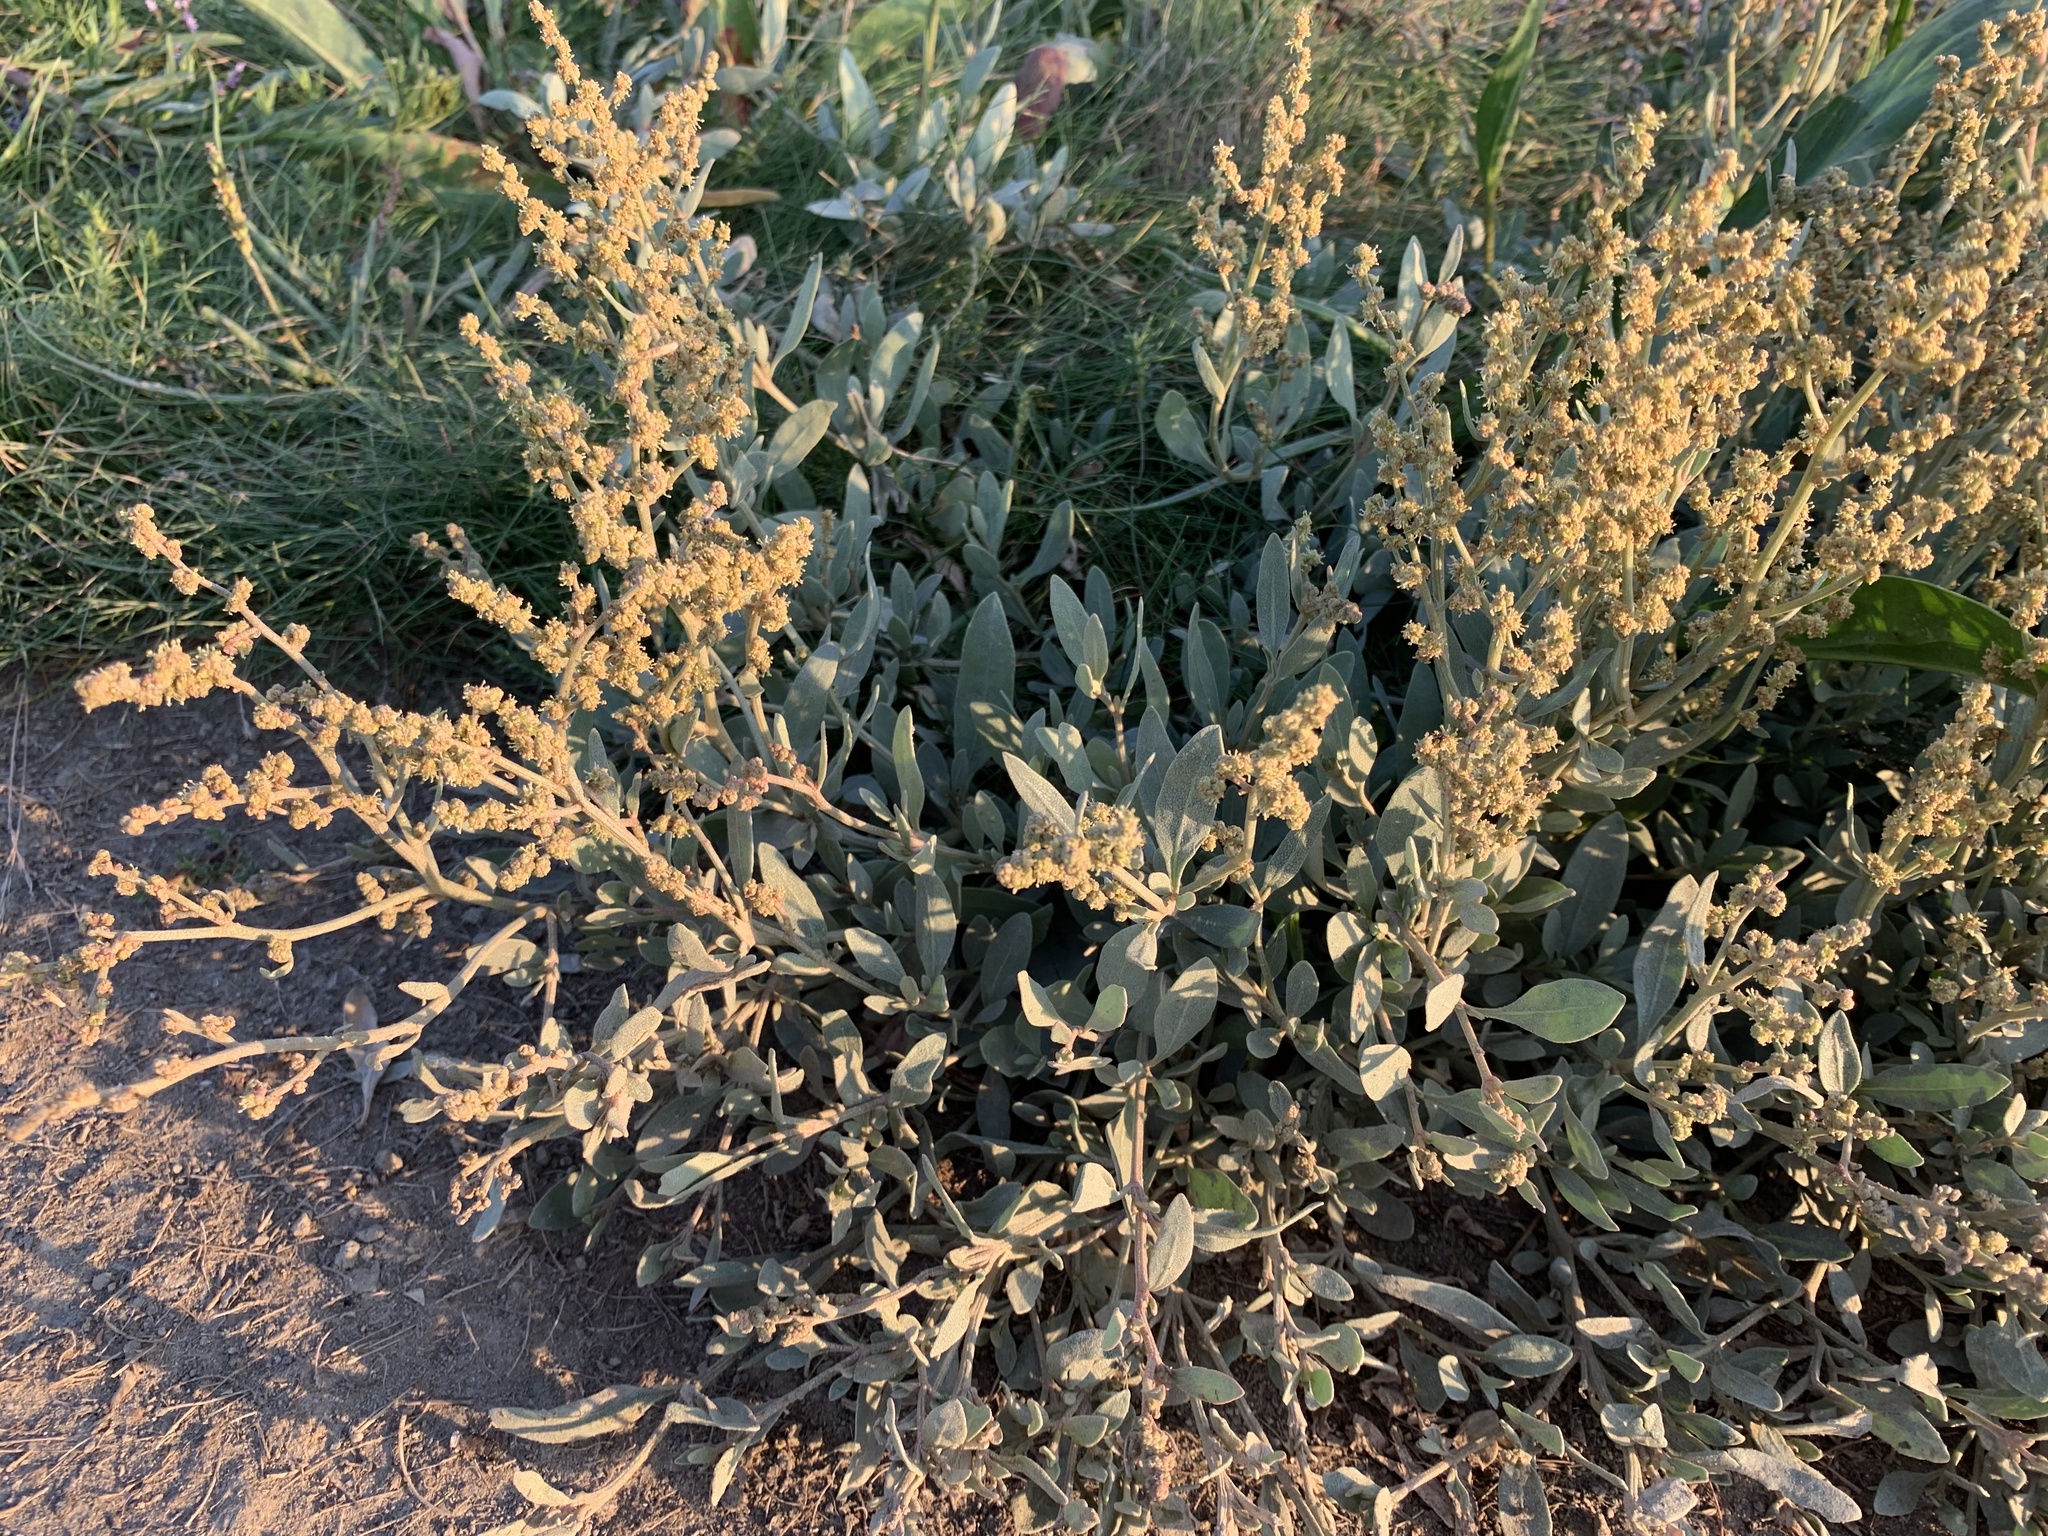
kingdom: Plantae
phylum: Tracheophyta
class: Magnoliopsida
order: Caryophyllales
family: Amaranthaceae
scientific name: Amaranthaceae
